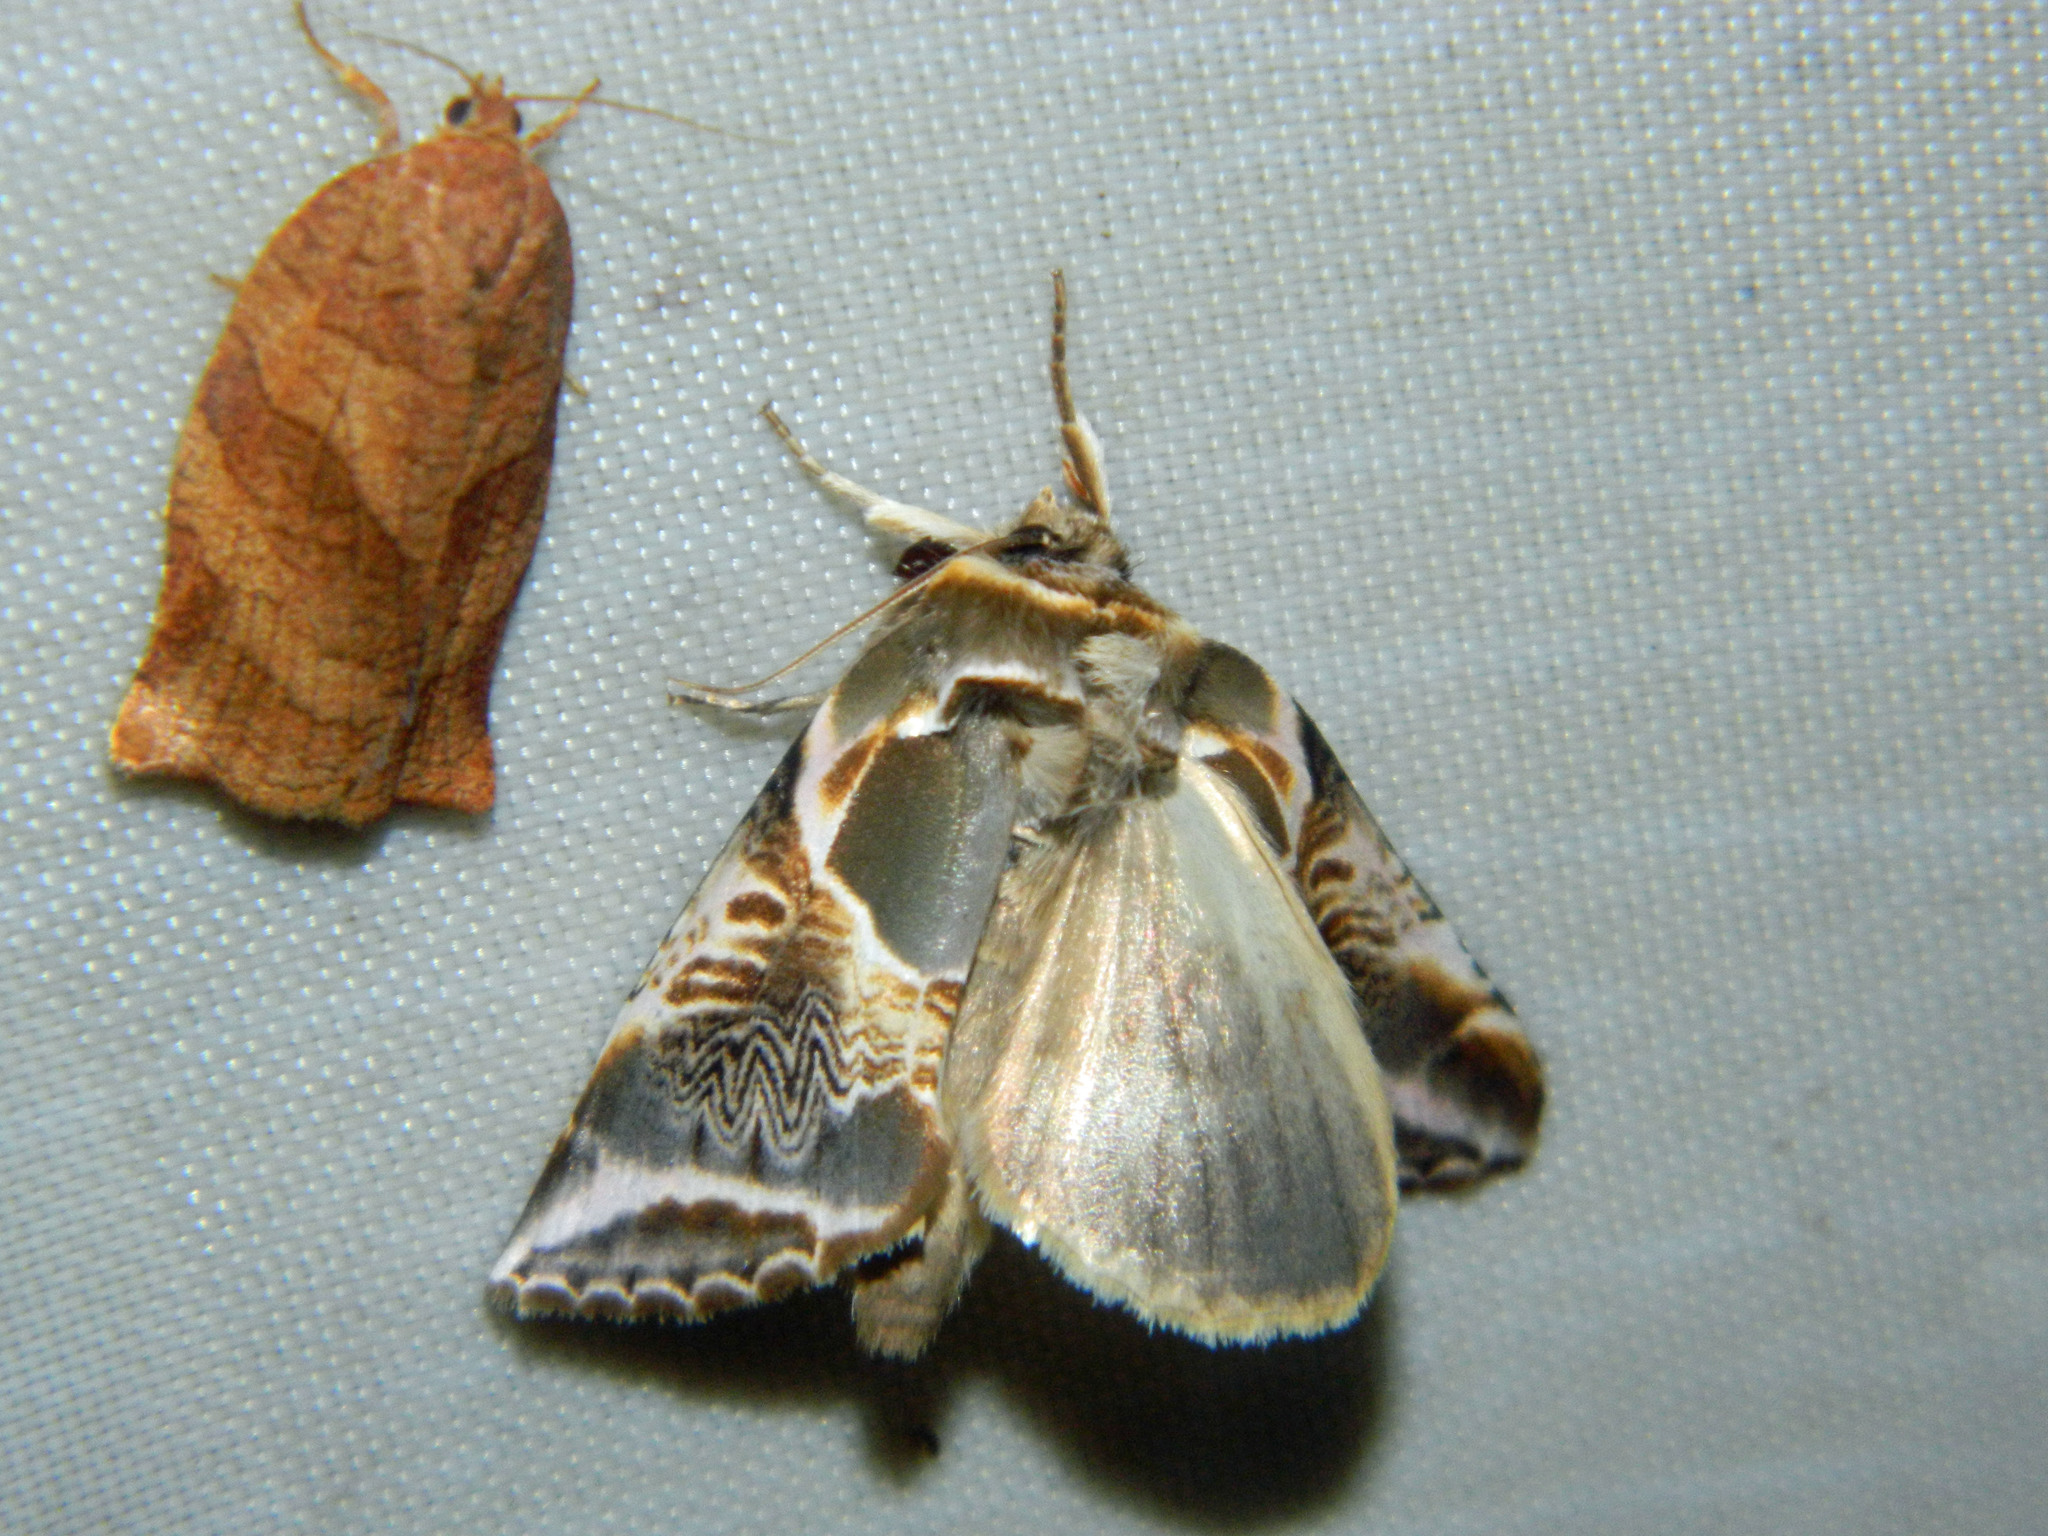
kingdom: Animalia
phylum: Arthropoda
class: Insecta
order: Lepidoptera
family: Drepanidae
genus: Habrosyne
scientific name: Habrosyne scripta
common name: Lettered habrosyne moth
